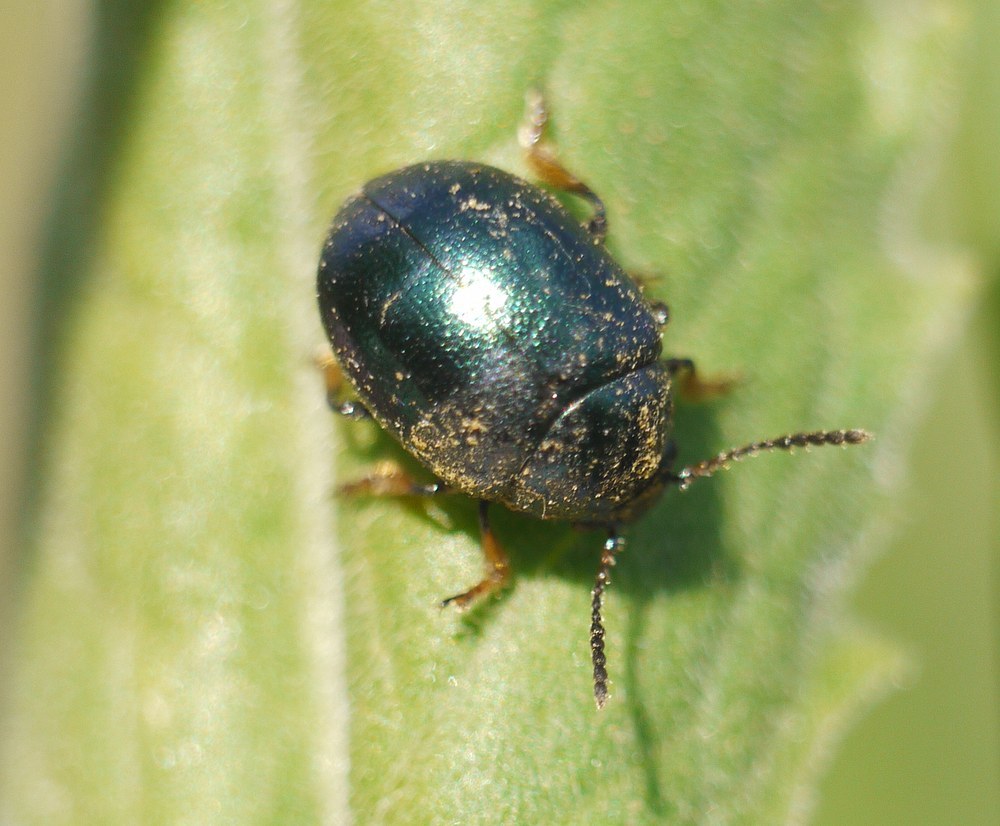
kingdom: Animalia
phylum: Arthropoda
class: Insecta
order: Coleoptera
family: Chrysomelidae
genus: Colaphellus
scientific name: Colaphellus sophiae
